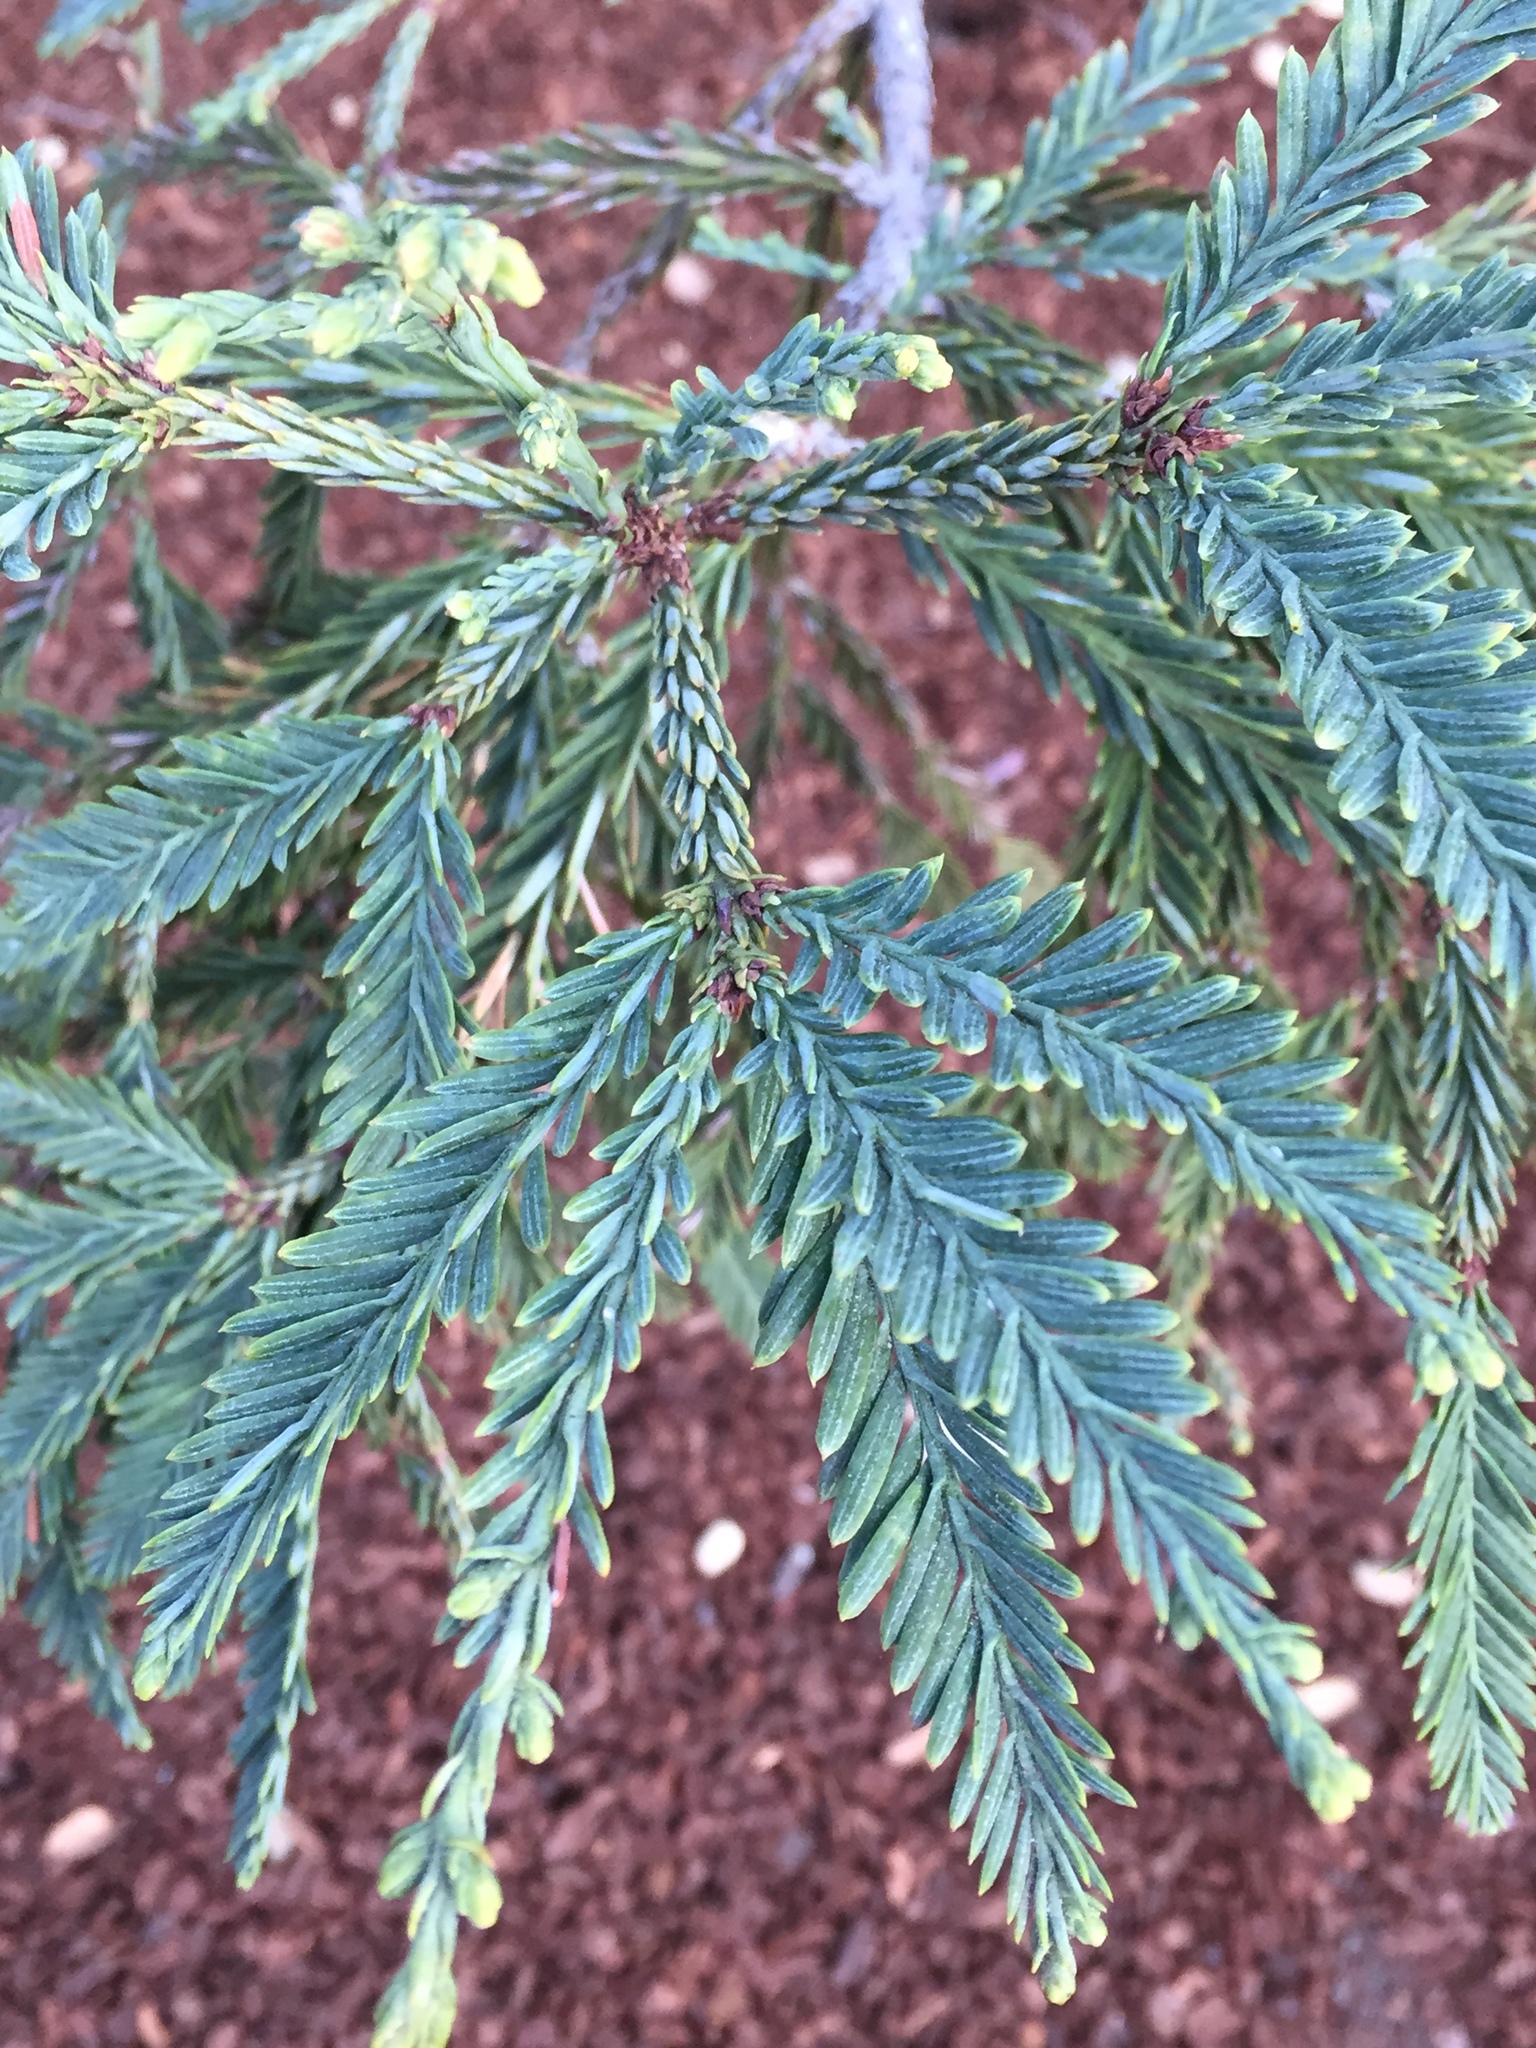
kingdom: Plantae
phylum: Tracheophyta
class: Pinopsida
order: Pinales
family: Cupressaceae
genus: Sequoia
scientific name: Sequoia sempervirens
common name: Coast redwood
